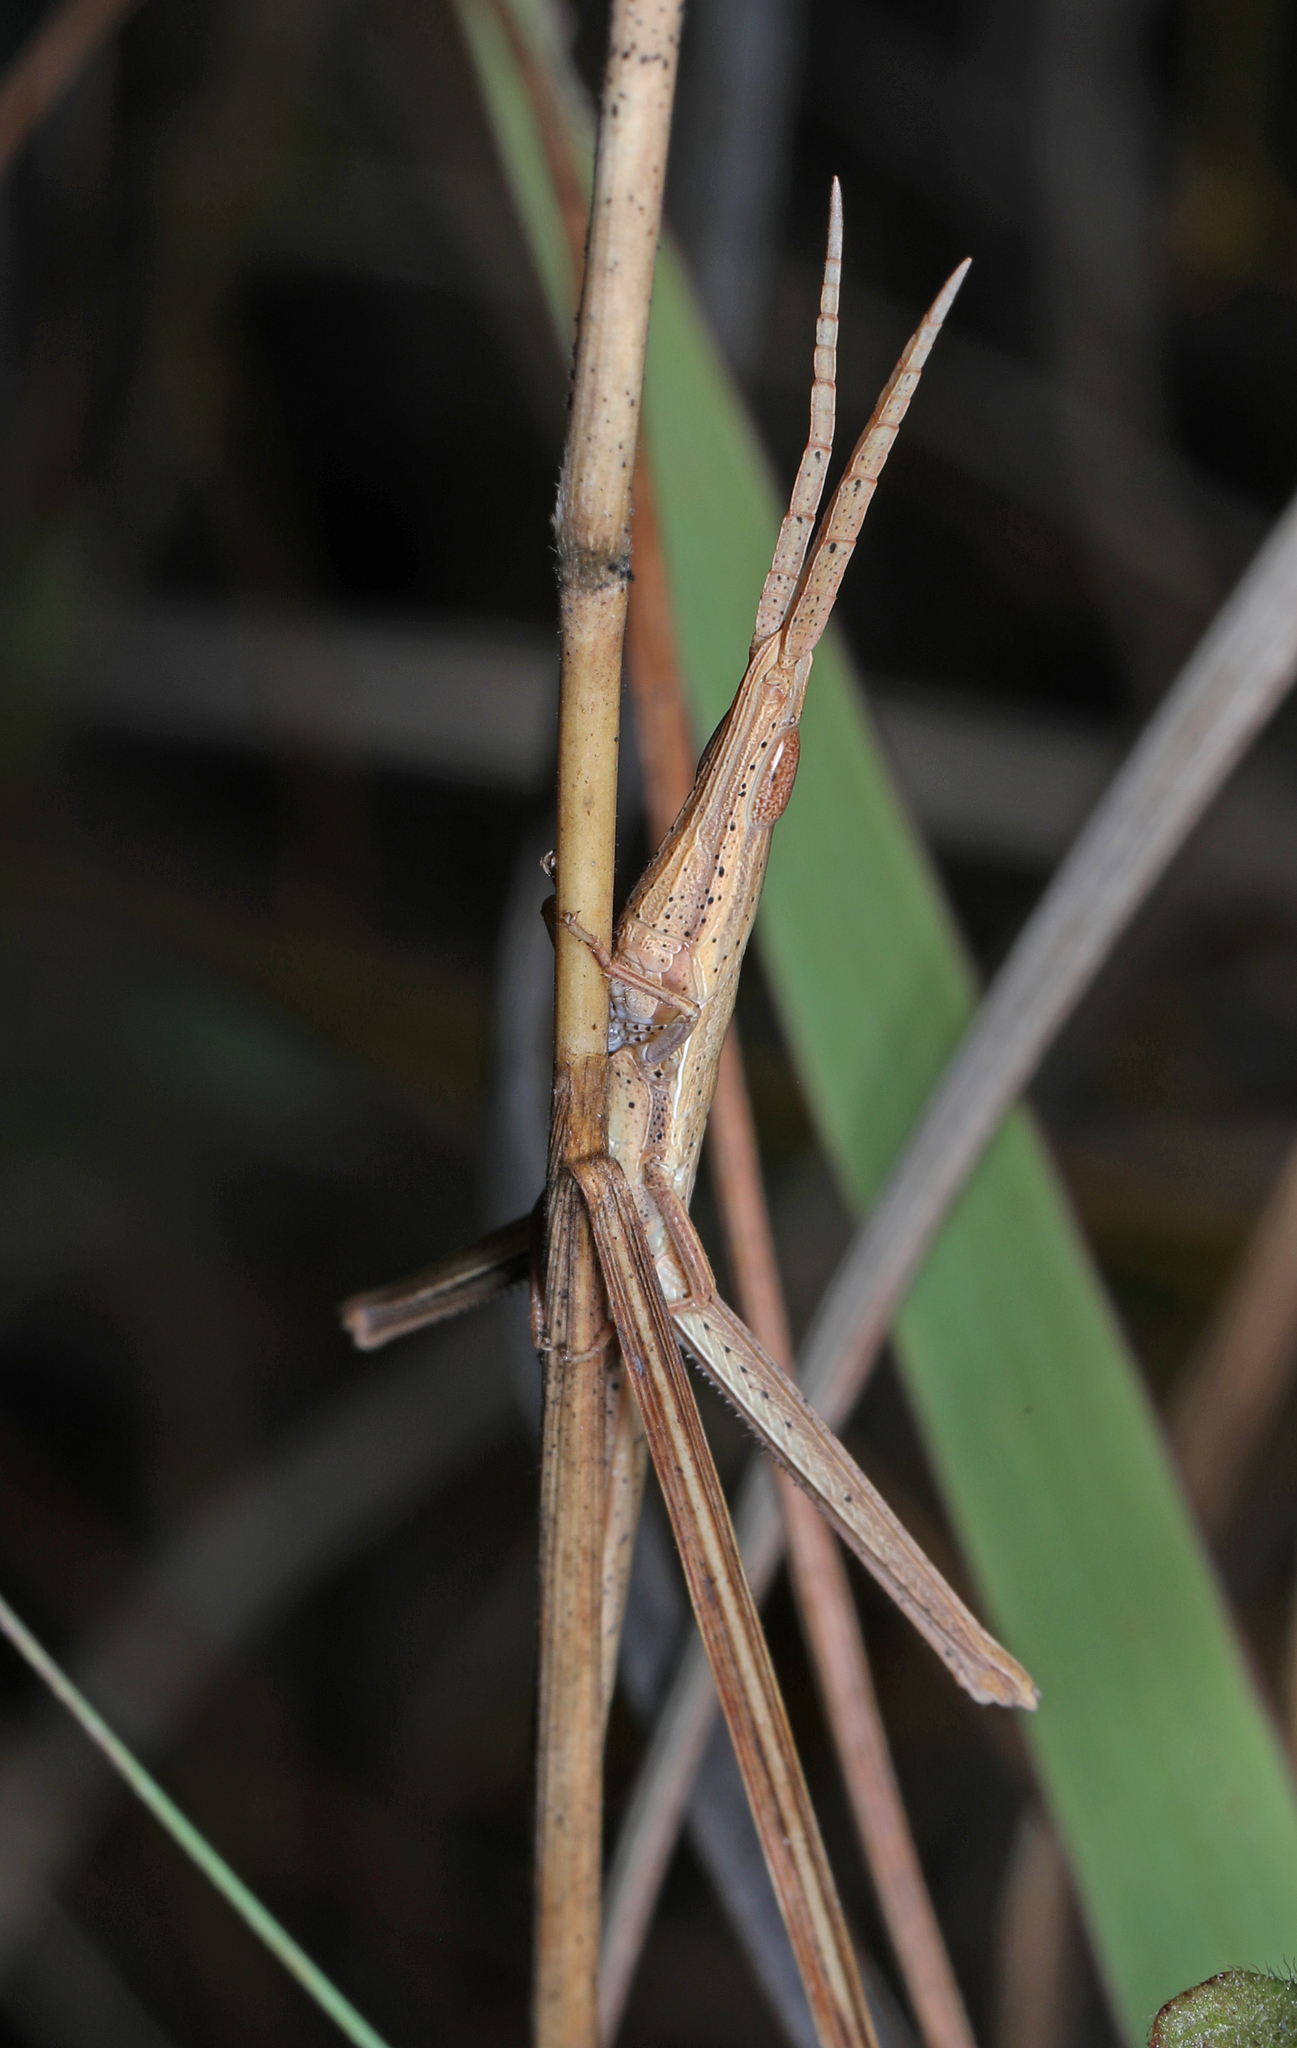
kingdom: Animalia
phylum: Arthropoda
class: Insecta
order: Orthoptera
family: Acrididae
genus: Achurum
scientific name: Achurum carinatum
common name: Long-headed toothpick grasshopper
